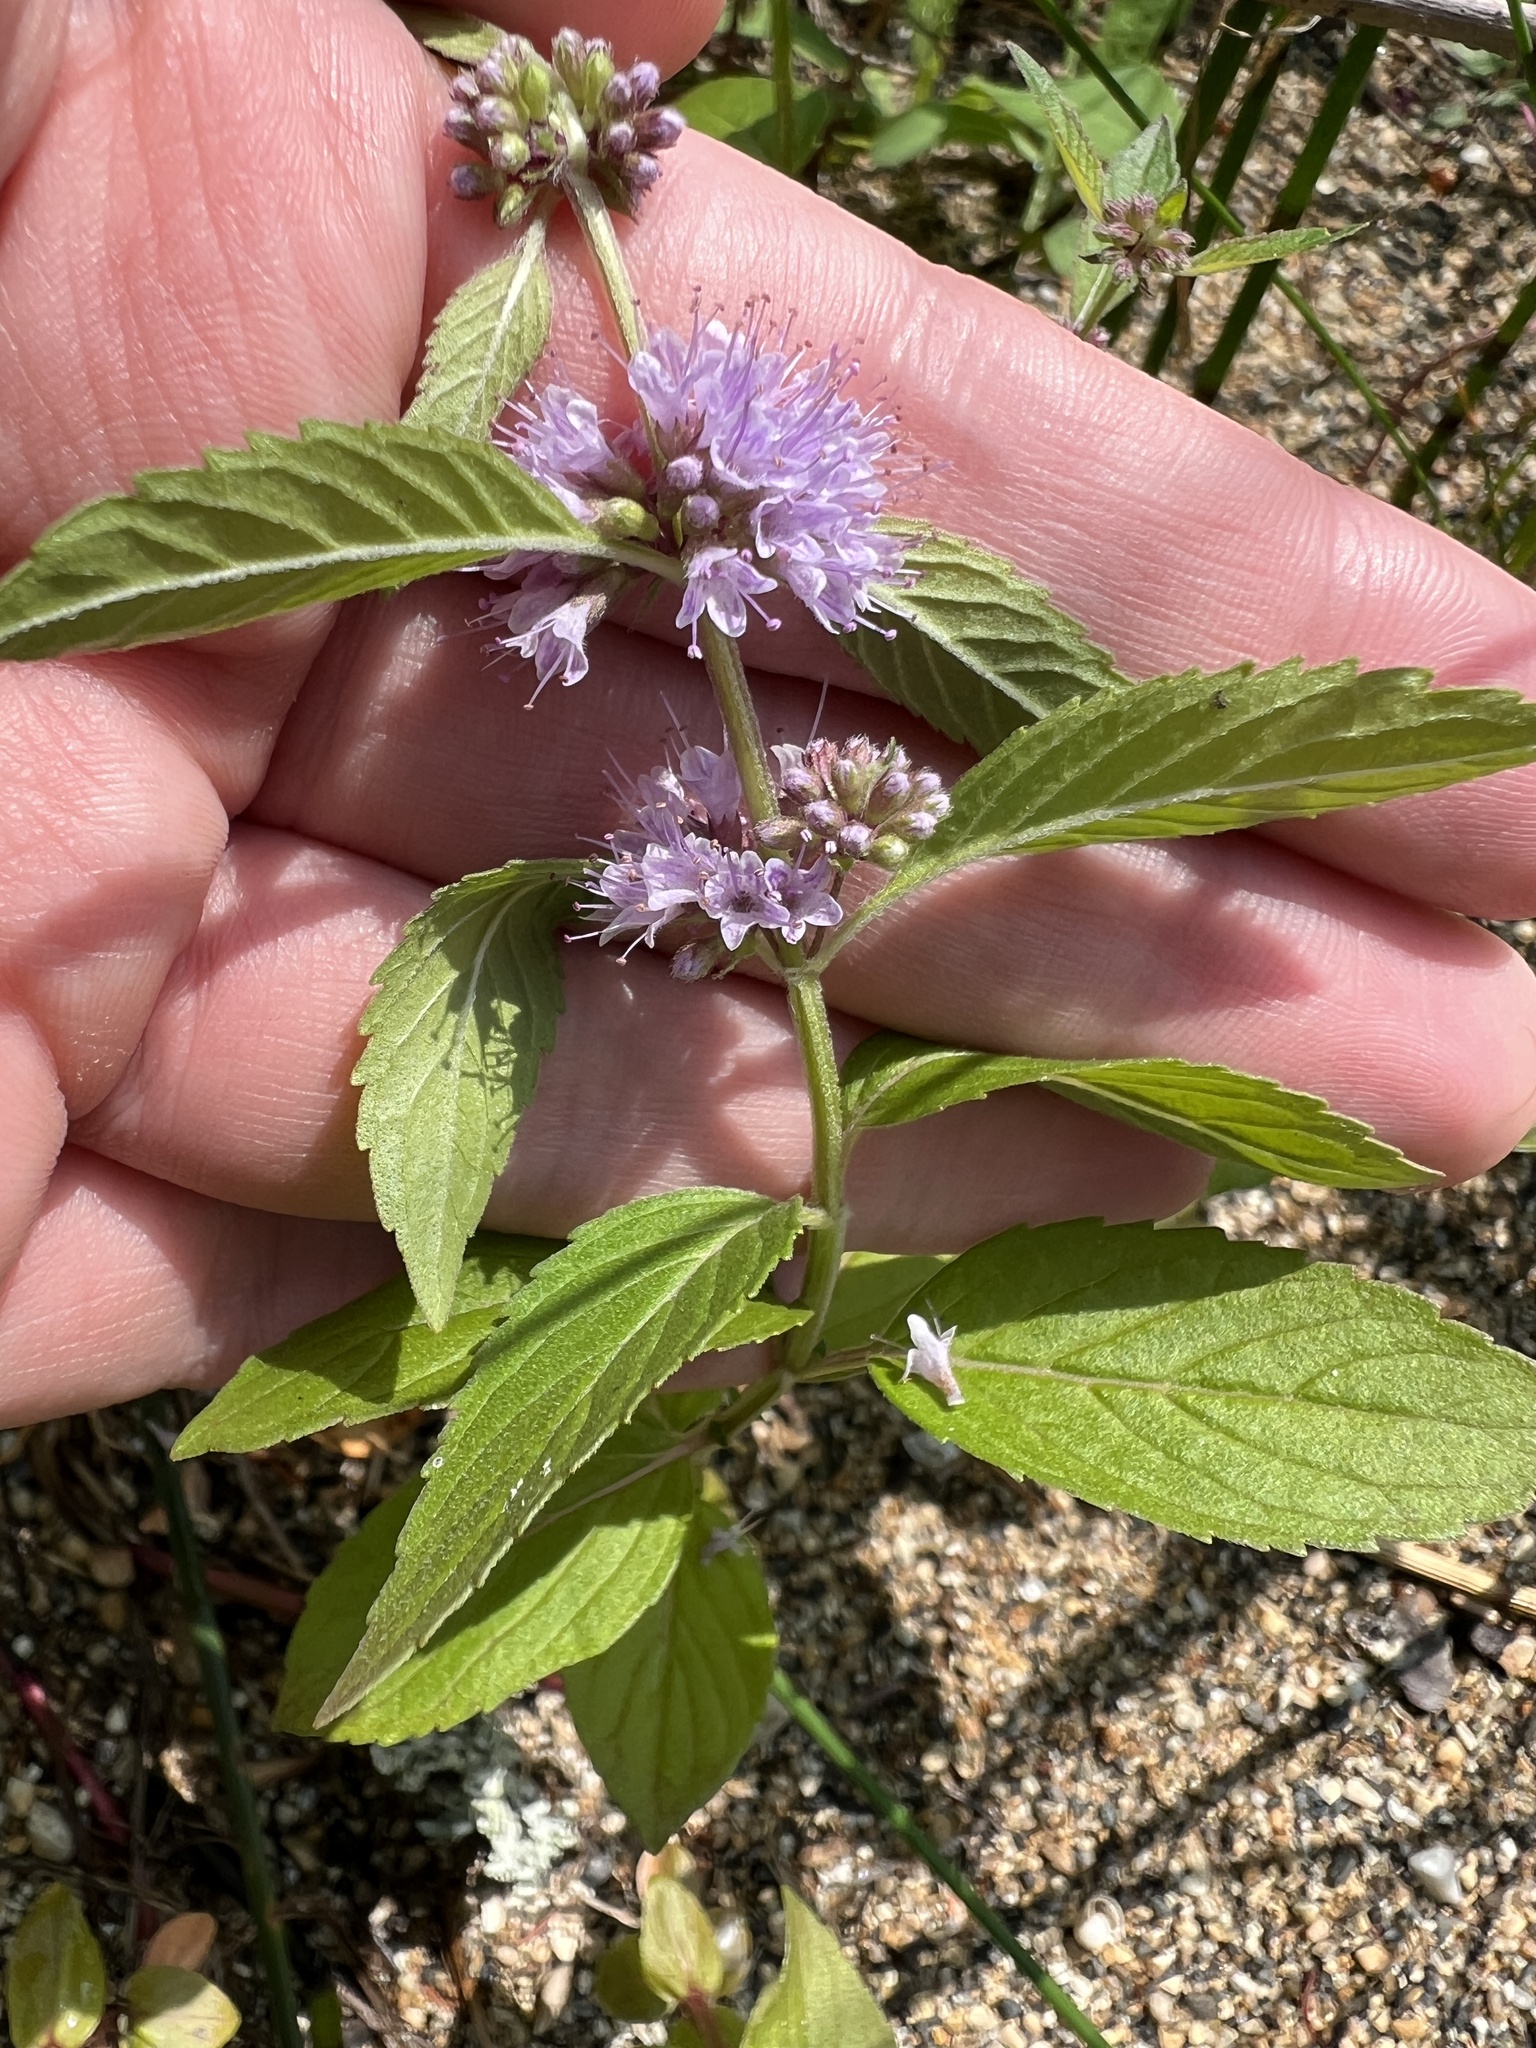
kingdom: Plantae
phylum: Tracheophyta
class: Magnoliopsida
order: Lamiales
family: Lamiaceae
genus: Mentha
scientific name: Mentha canadensis
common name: American corn mint
